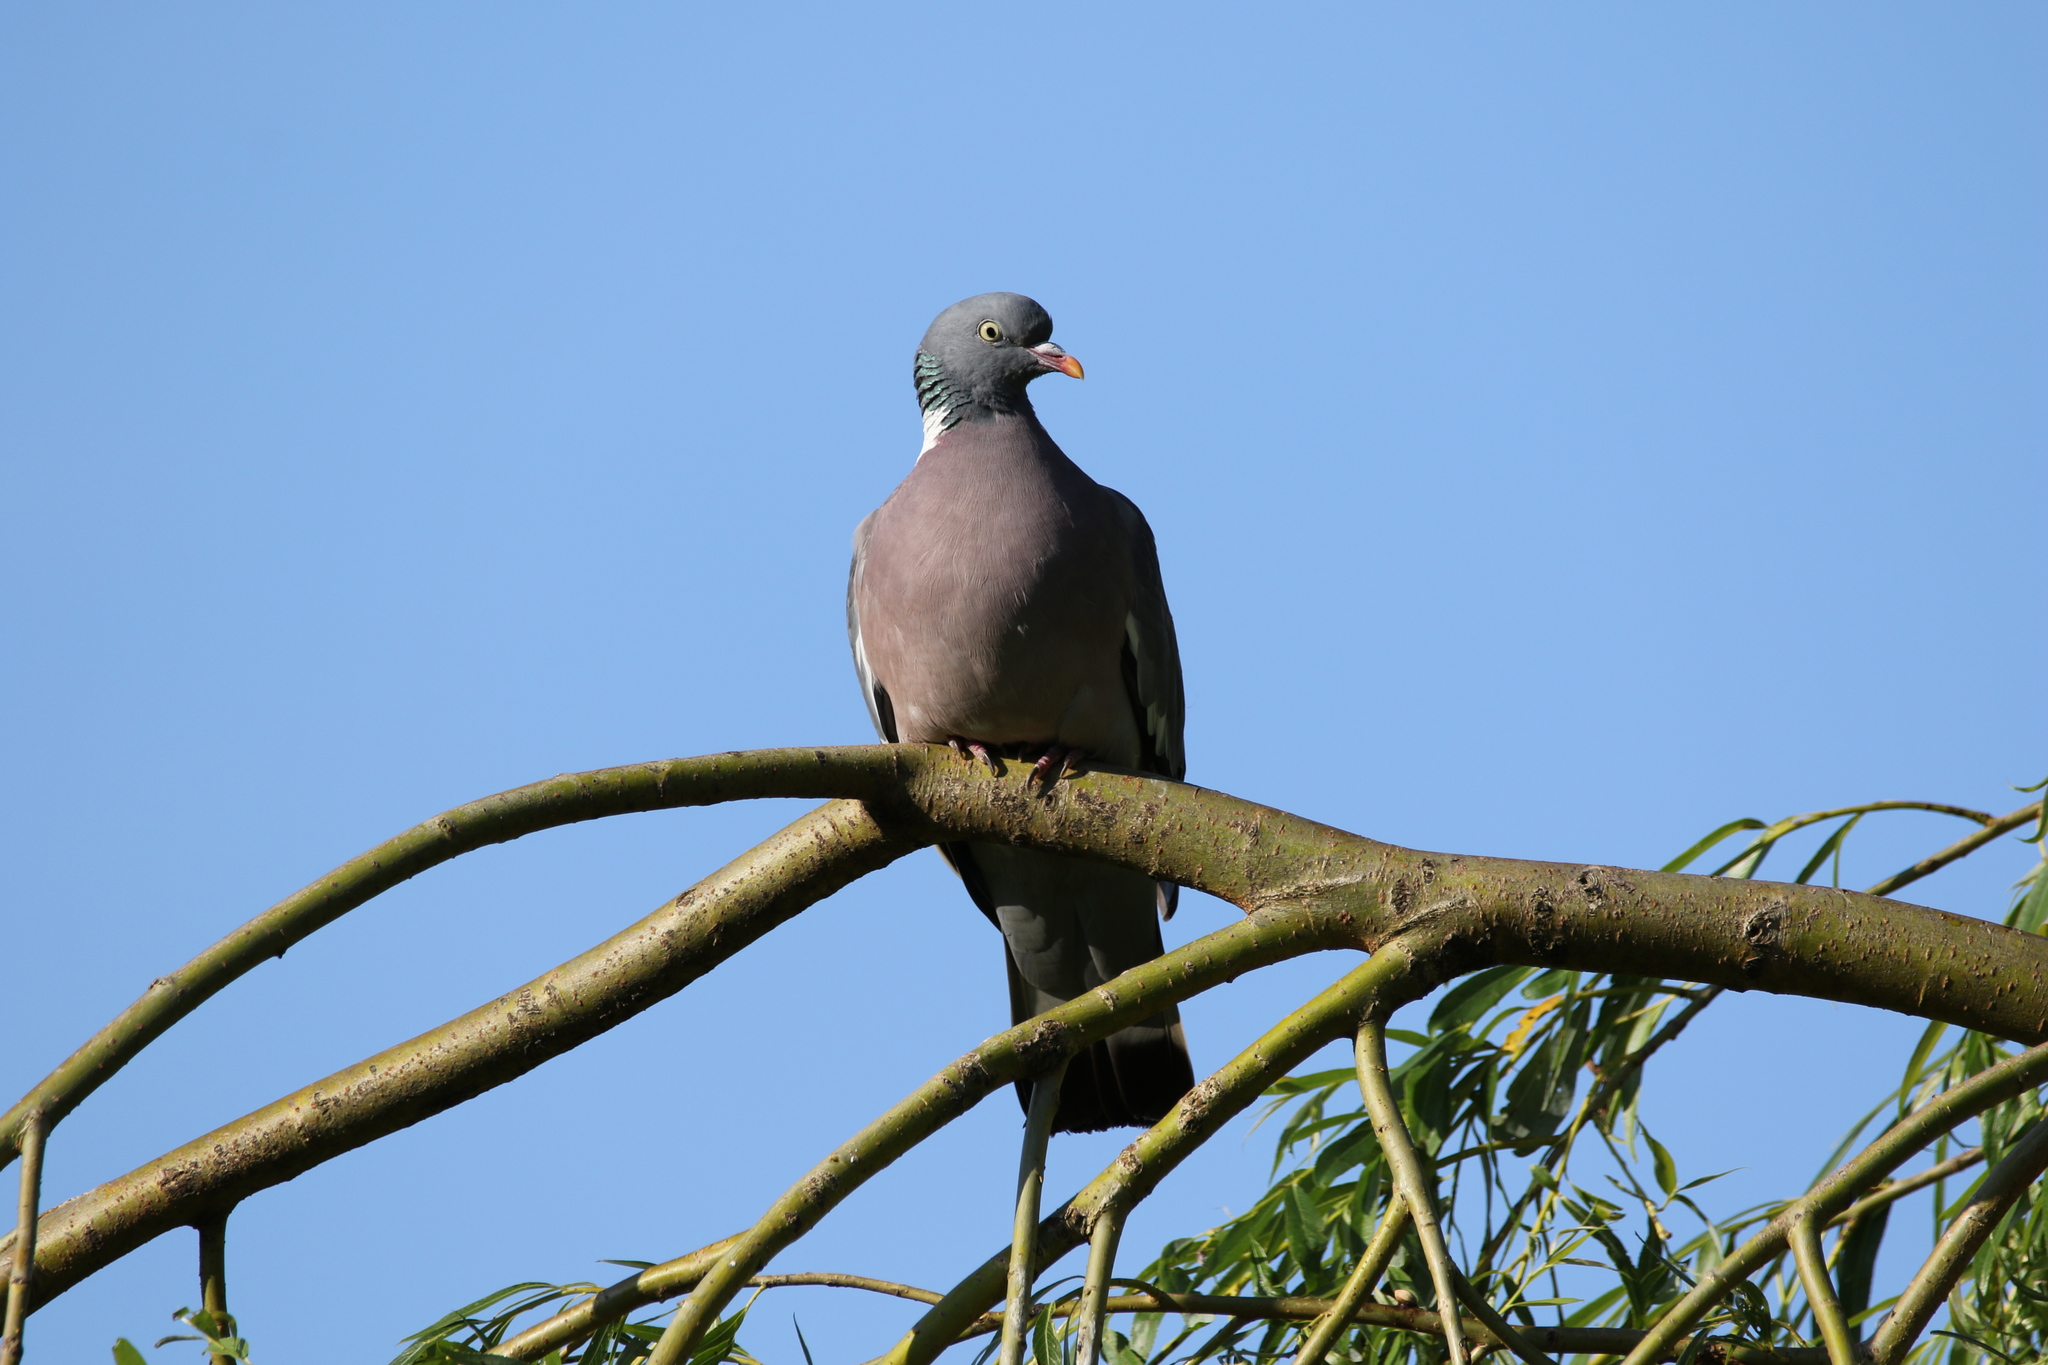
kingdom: Animalia
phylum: Chordata
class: Aves
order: Columbiformes
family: Columbidae
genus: Columba
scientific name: Columba palumbus
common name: Common wood pigeon
